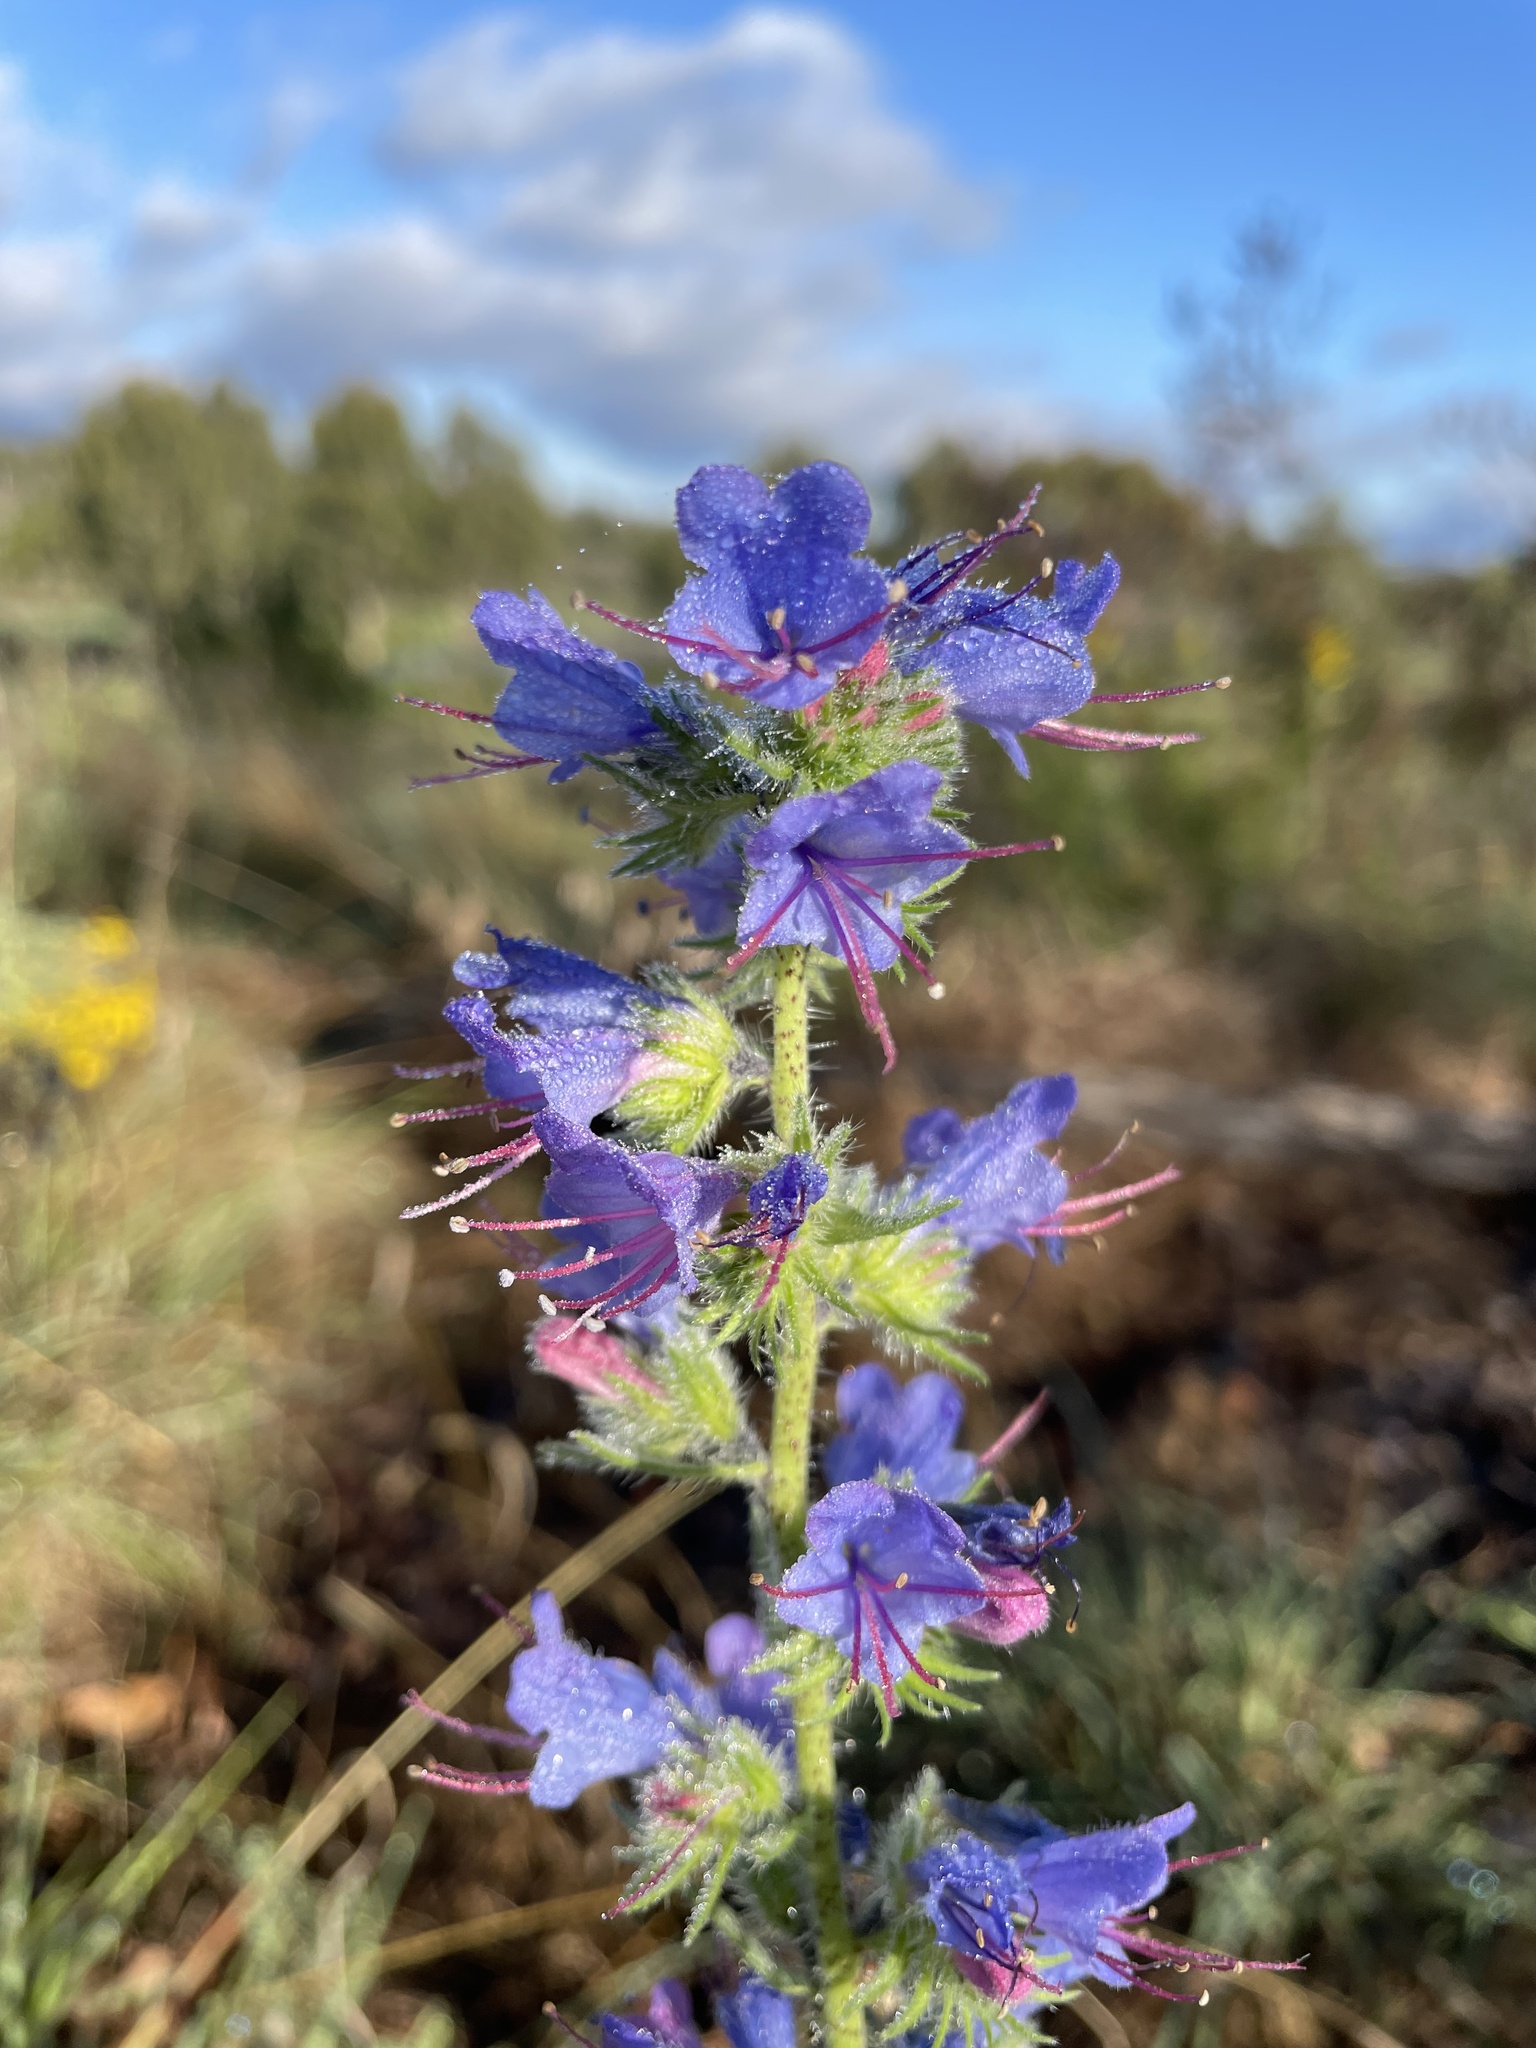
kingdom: Plantae
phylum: Tracheophyta
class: Magnoliopsida
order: Boraginales
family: Boraginaceae
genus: Echium
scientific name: Echium vulgare
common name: Common viper's bugloss
